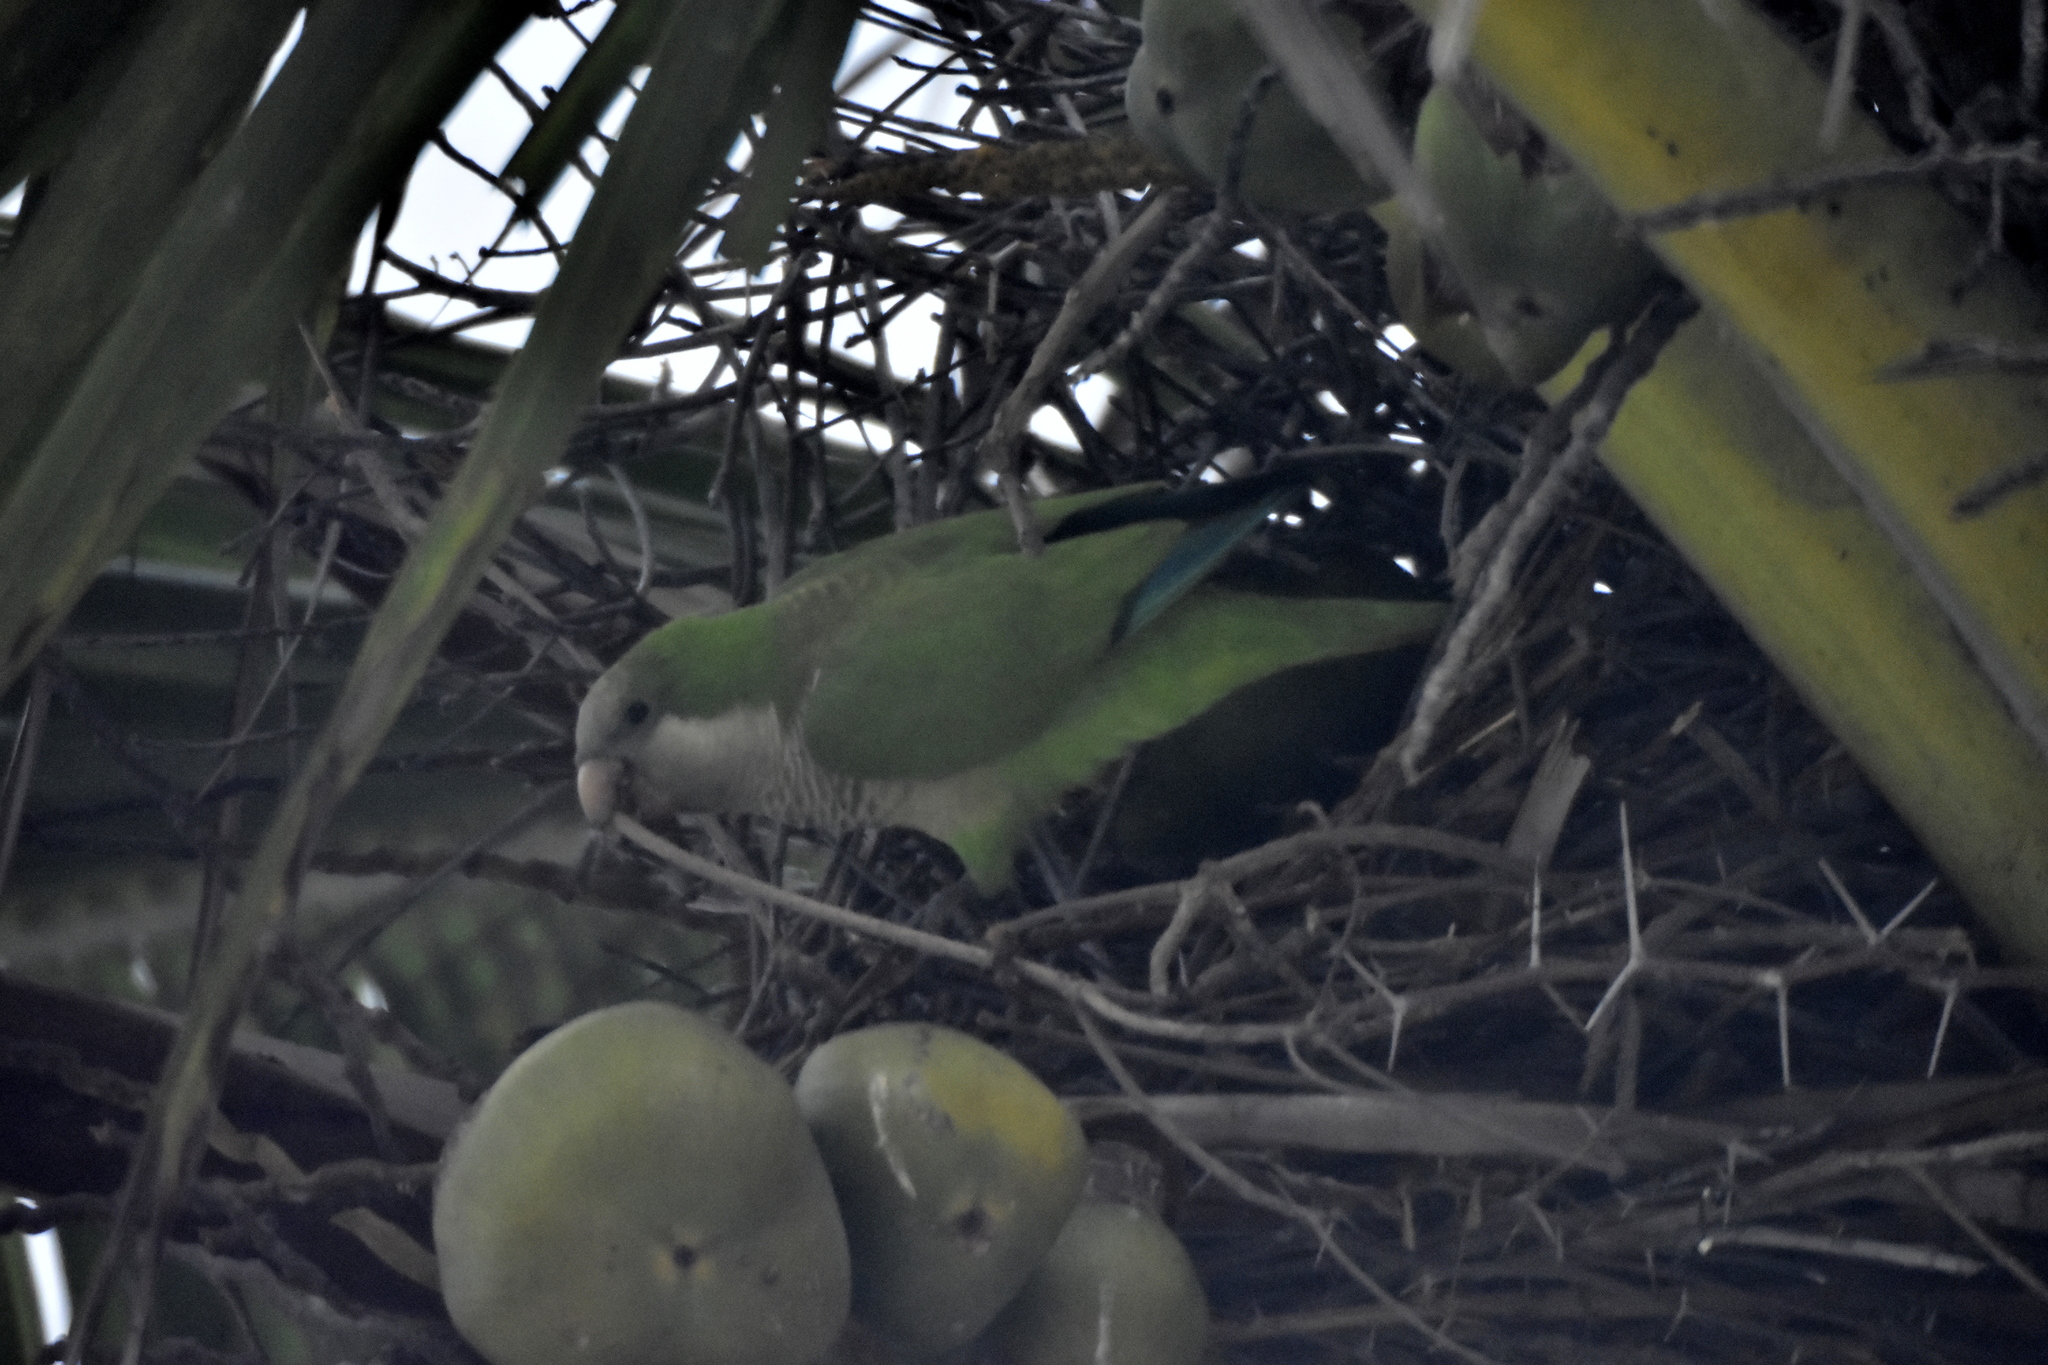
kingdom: Animalia
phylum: Chordata
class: Aves
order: Psittaciformes
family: Psittacidae
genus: Myiopsitta
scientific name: Myiopsitta monachus
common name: Monk parakeet
